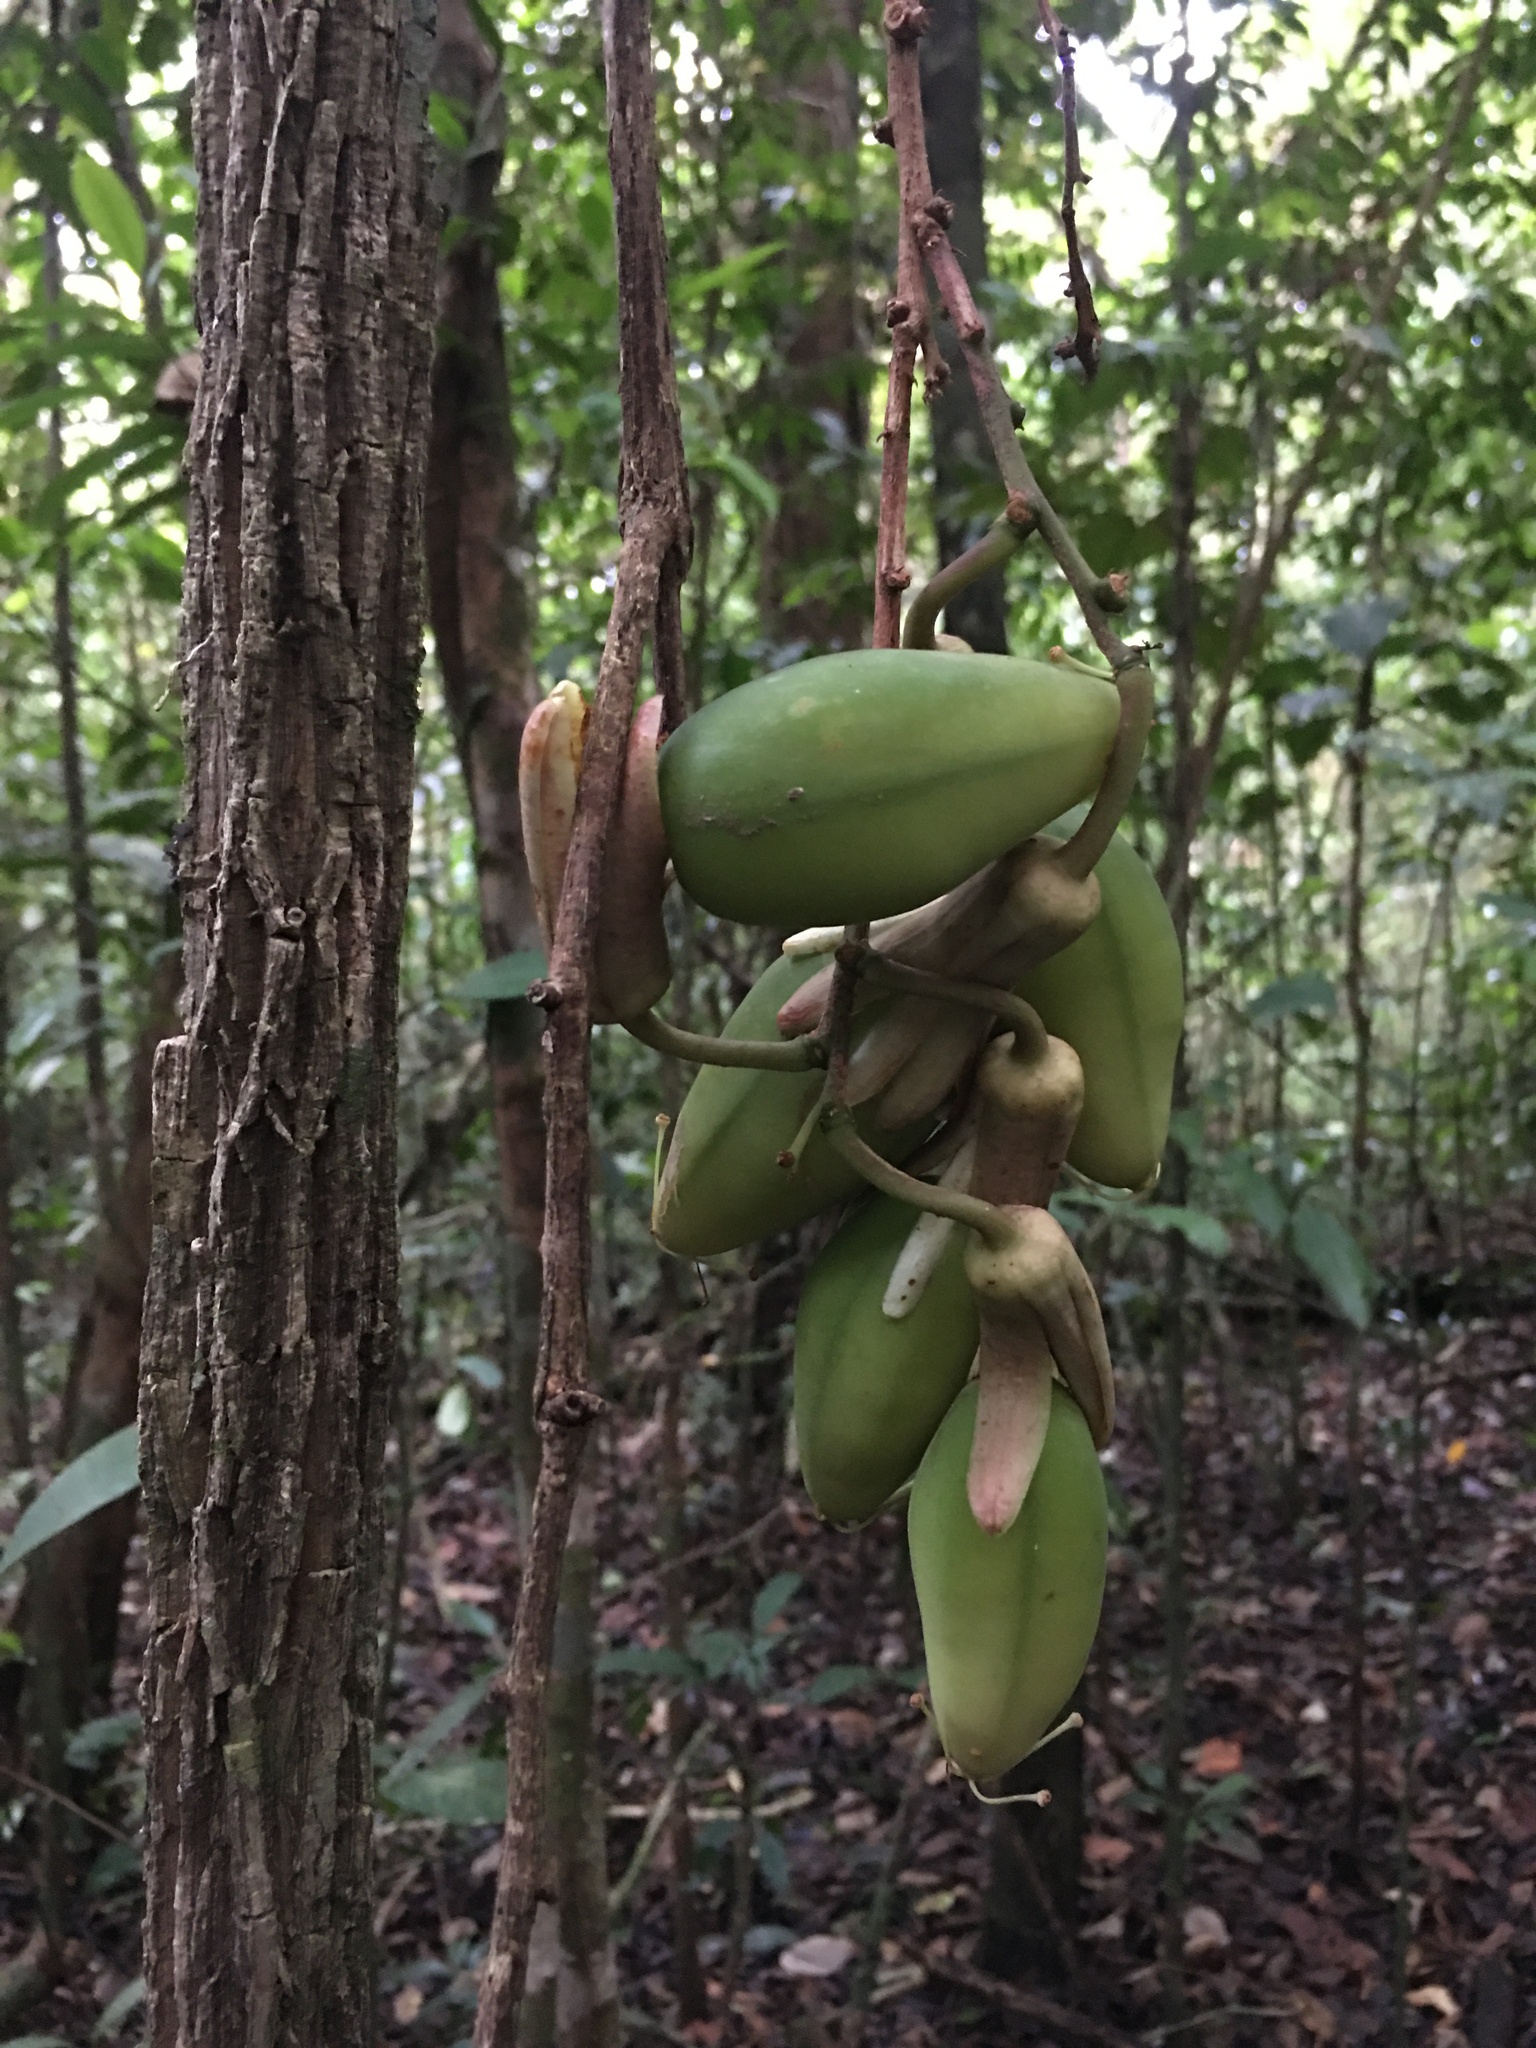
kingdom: Plantae
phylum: Tracheophyta
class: Magnoliopsida
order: Malpighiales
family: Passifloraceae
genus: Passiflora
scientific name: Passiflora contracta
